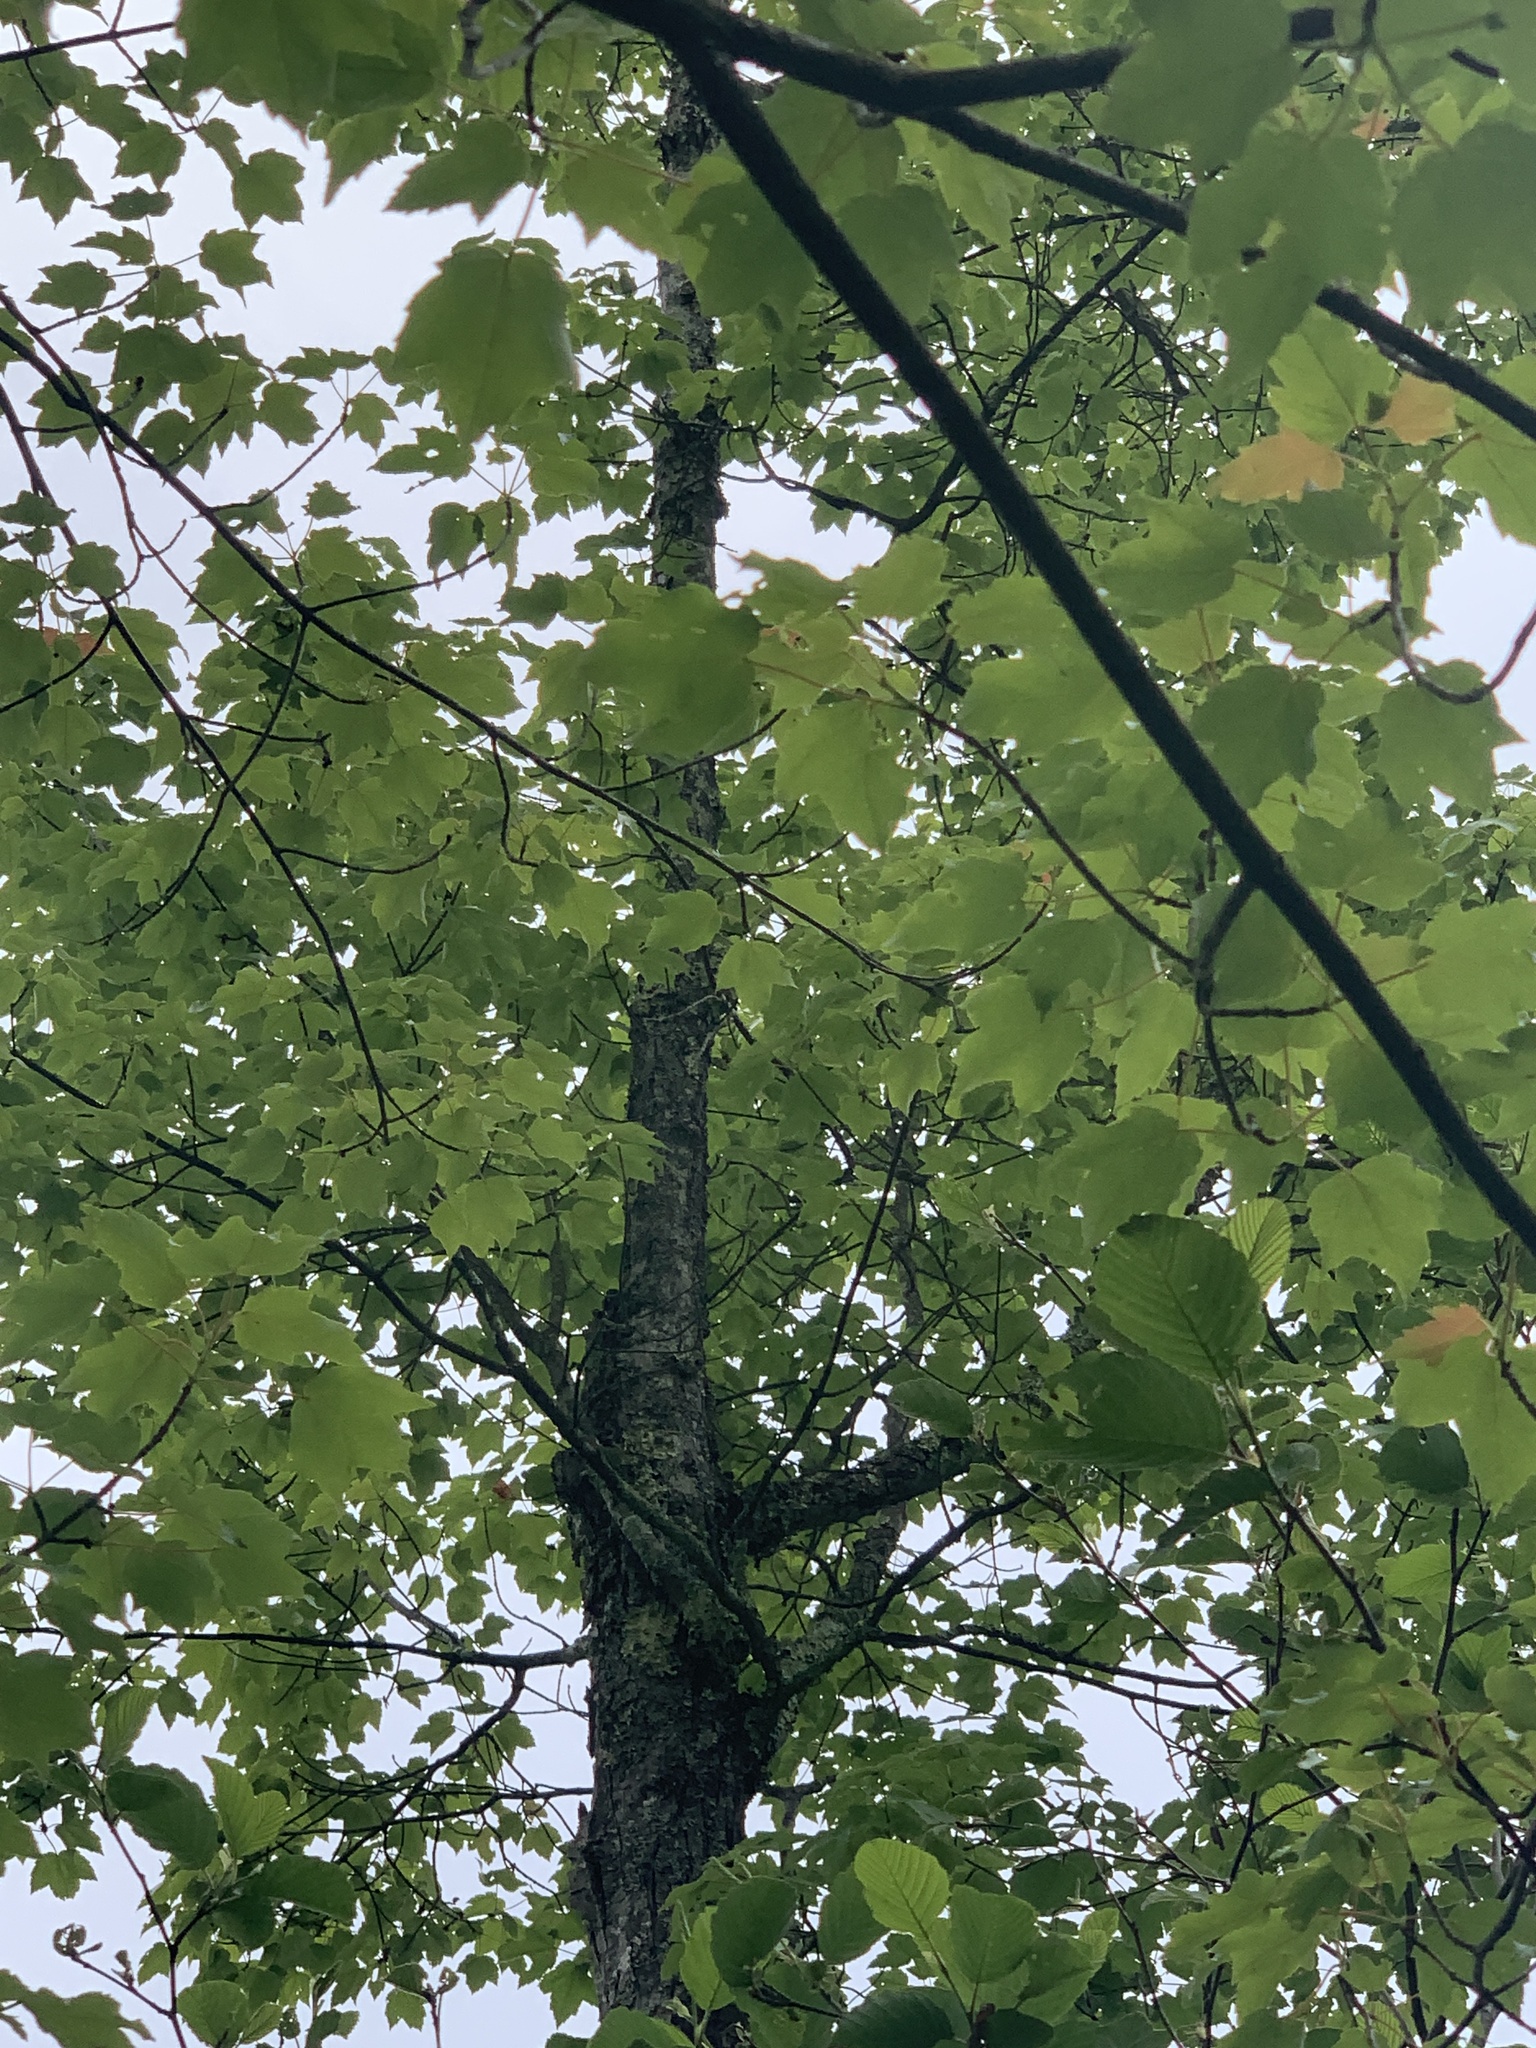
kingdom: Plantae
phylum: Tracheophyta
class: Magnoliopsida
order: Sapindales
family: Sapindaceae
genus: Acer
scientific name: Acer rubrum
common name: Red maple
